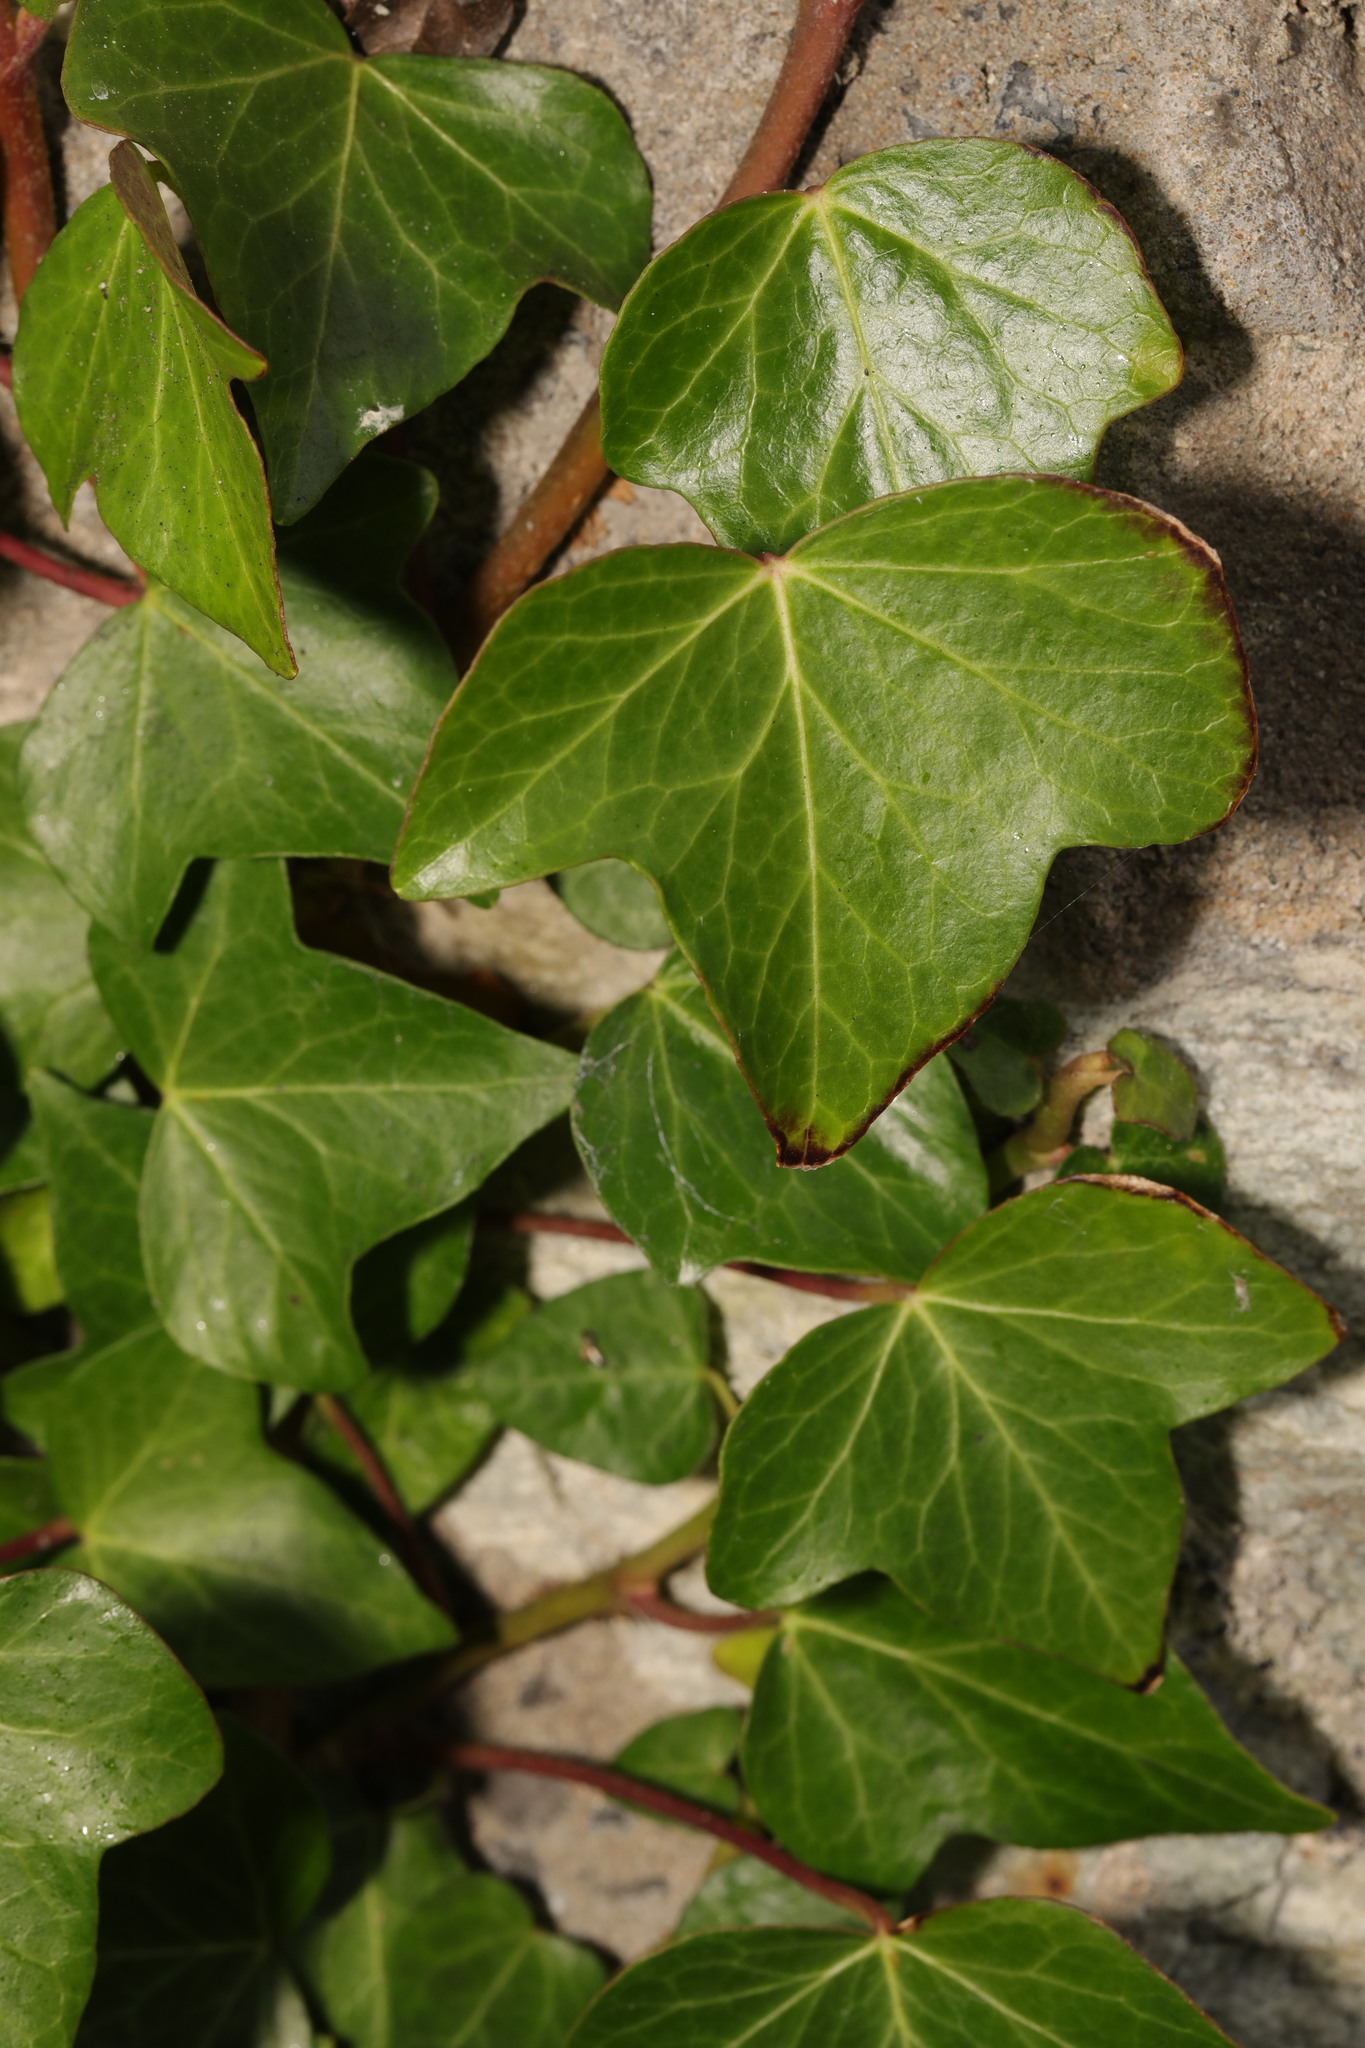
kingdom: Plantae
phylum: Tracheophyta
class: Magnoliopsida
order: Apiales
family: Araliaceae
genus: Hedera
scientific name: Hedera helix
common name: Ivy
